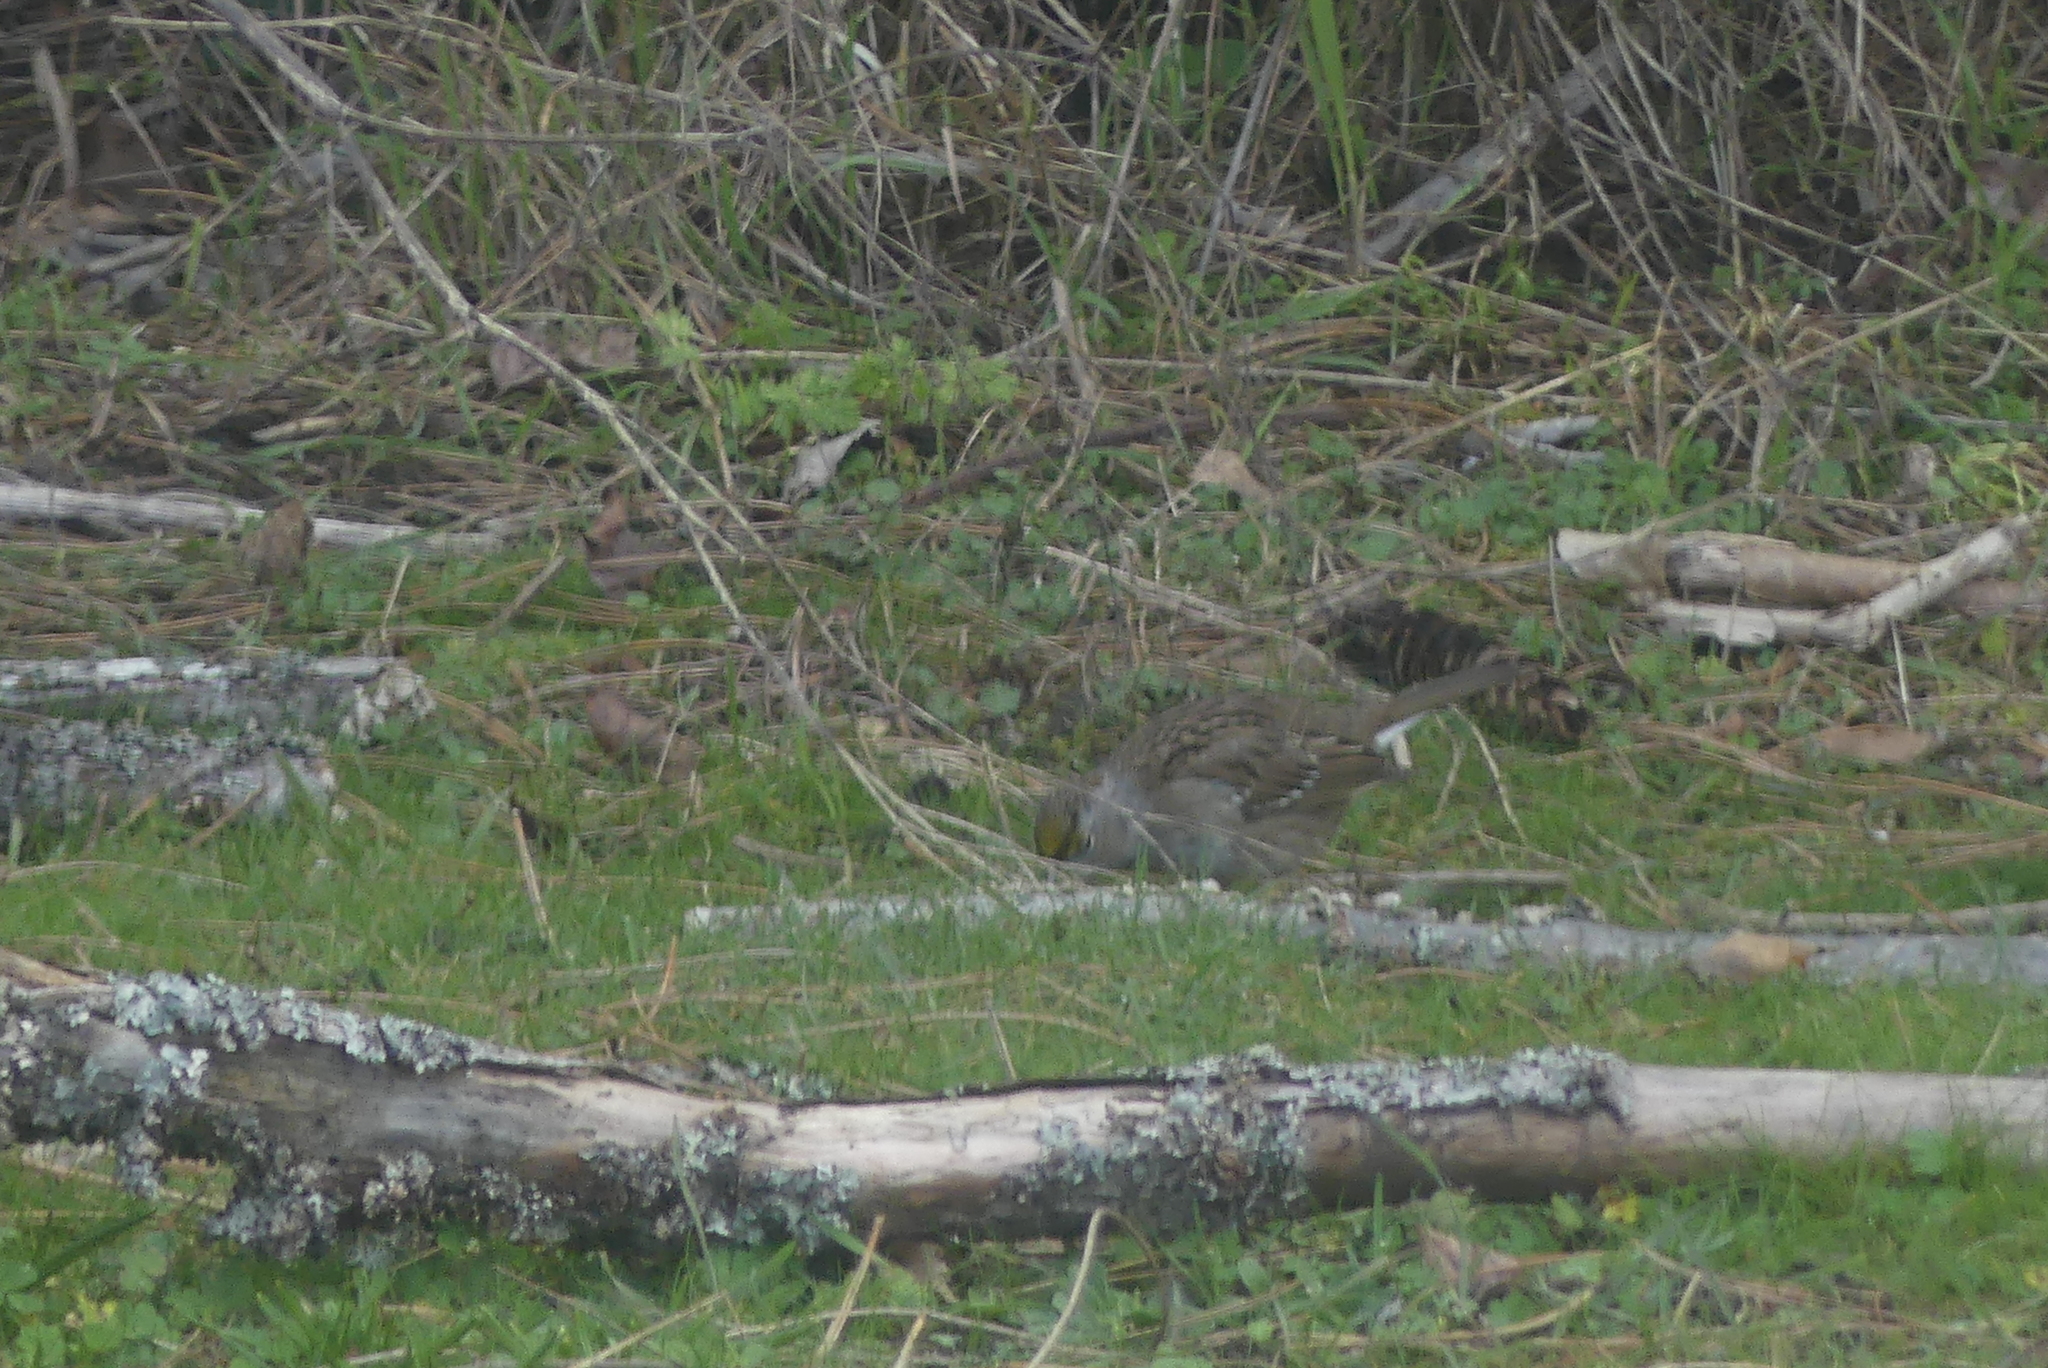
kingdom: Animalia
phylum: Chordata
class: Aves
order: Passeriformes
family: Passerellidae
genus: Zonotrichia
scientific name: Zonotrichia atricapilla
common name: Golden-crowned sparrow
